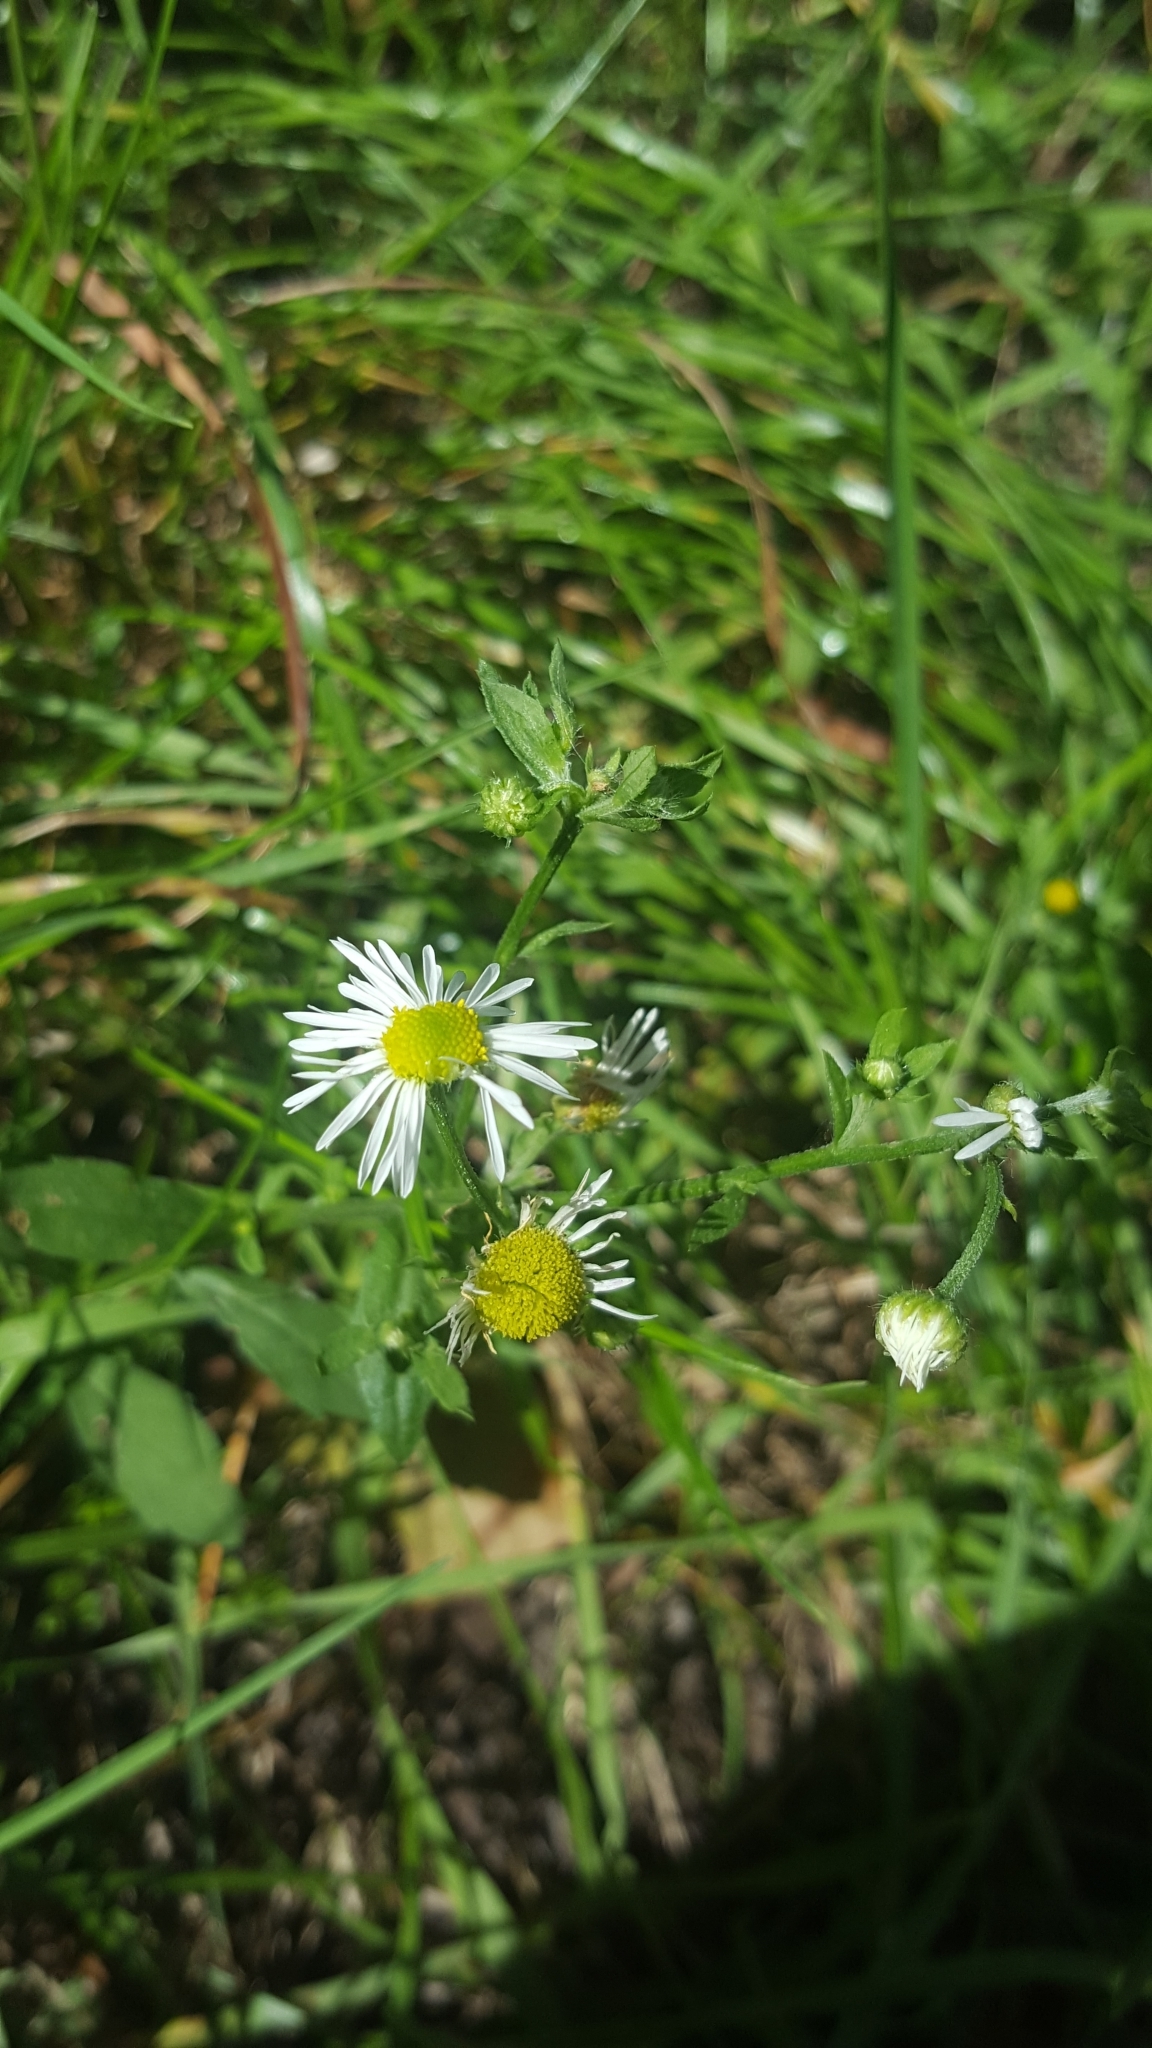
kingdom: Plantae
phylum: Tracheophyta
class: Magnoliopsida
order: Asterales
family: Asteraceae
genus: Erigeron
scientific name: Erigeron annuus
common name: Tall fleabane
